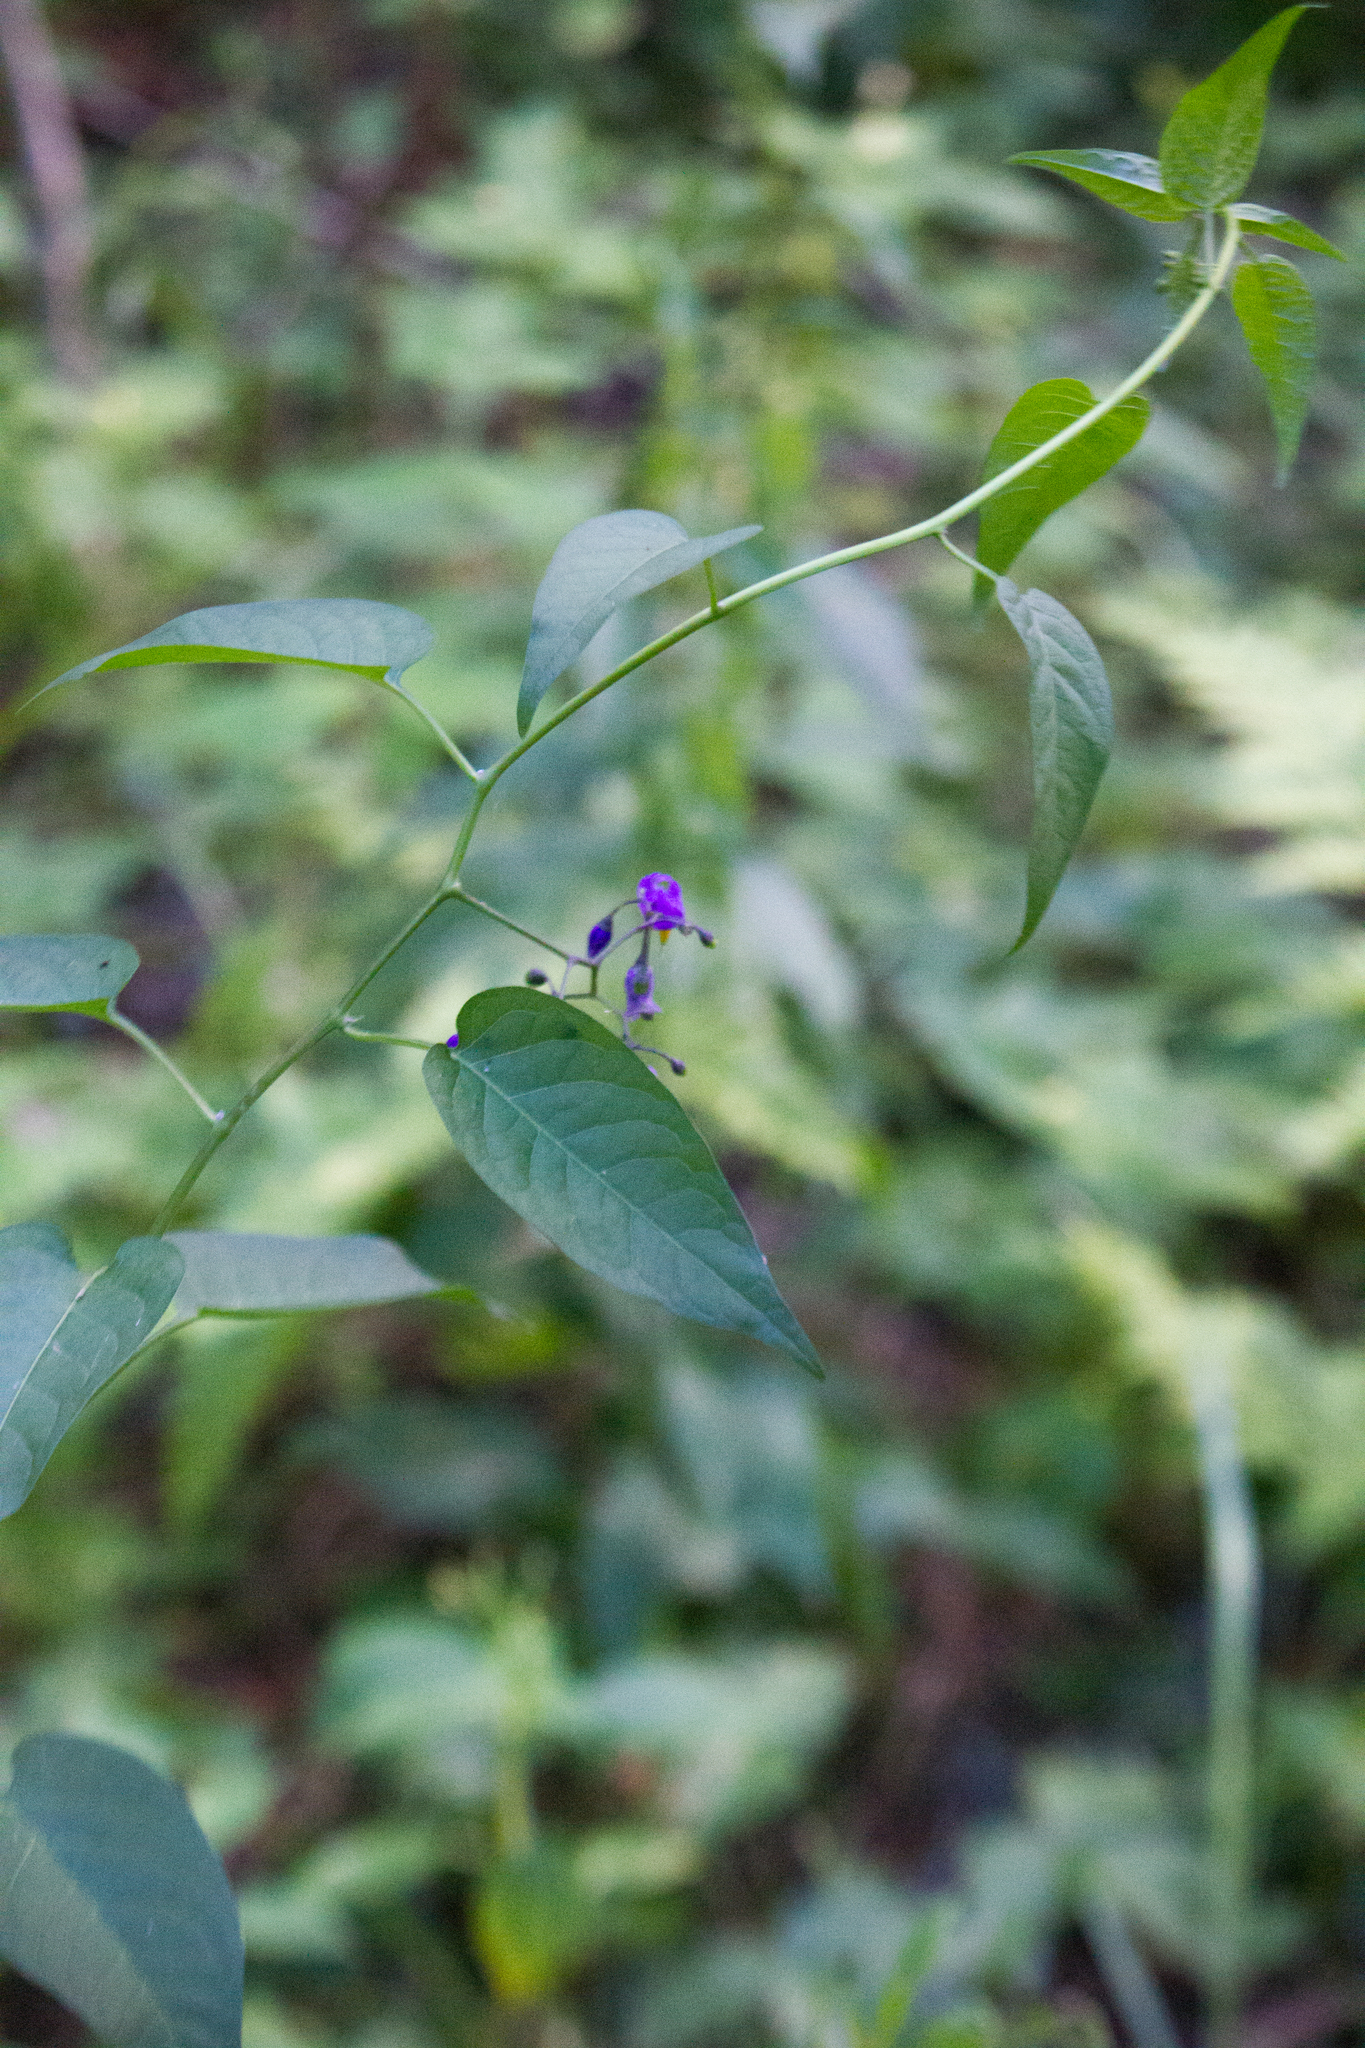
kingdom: Plantae
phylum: Tracheophyta
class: Magnoliopsida
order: Solanales
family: Solanaceae
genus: Solanum
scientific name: Solanum dulcamara
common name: Climbing nightshade
